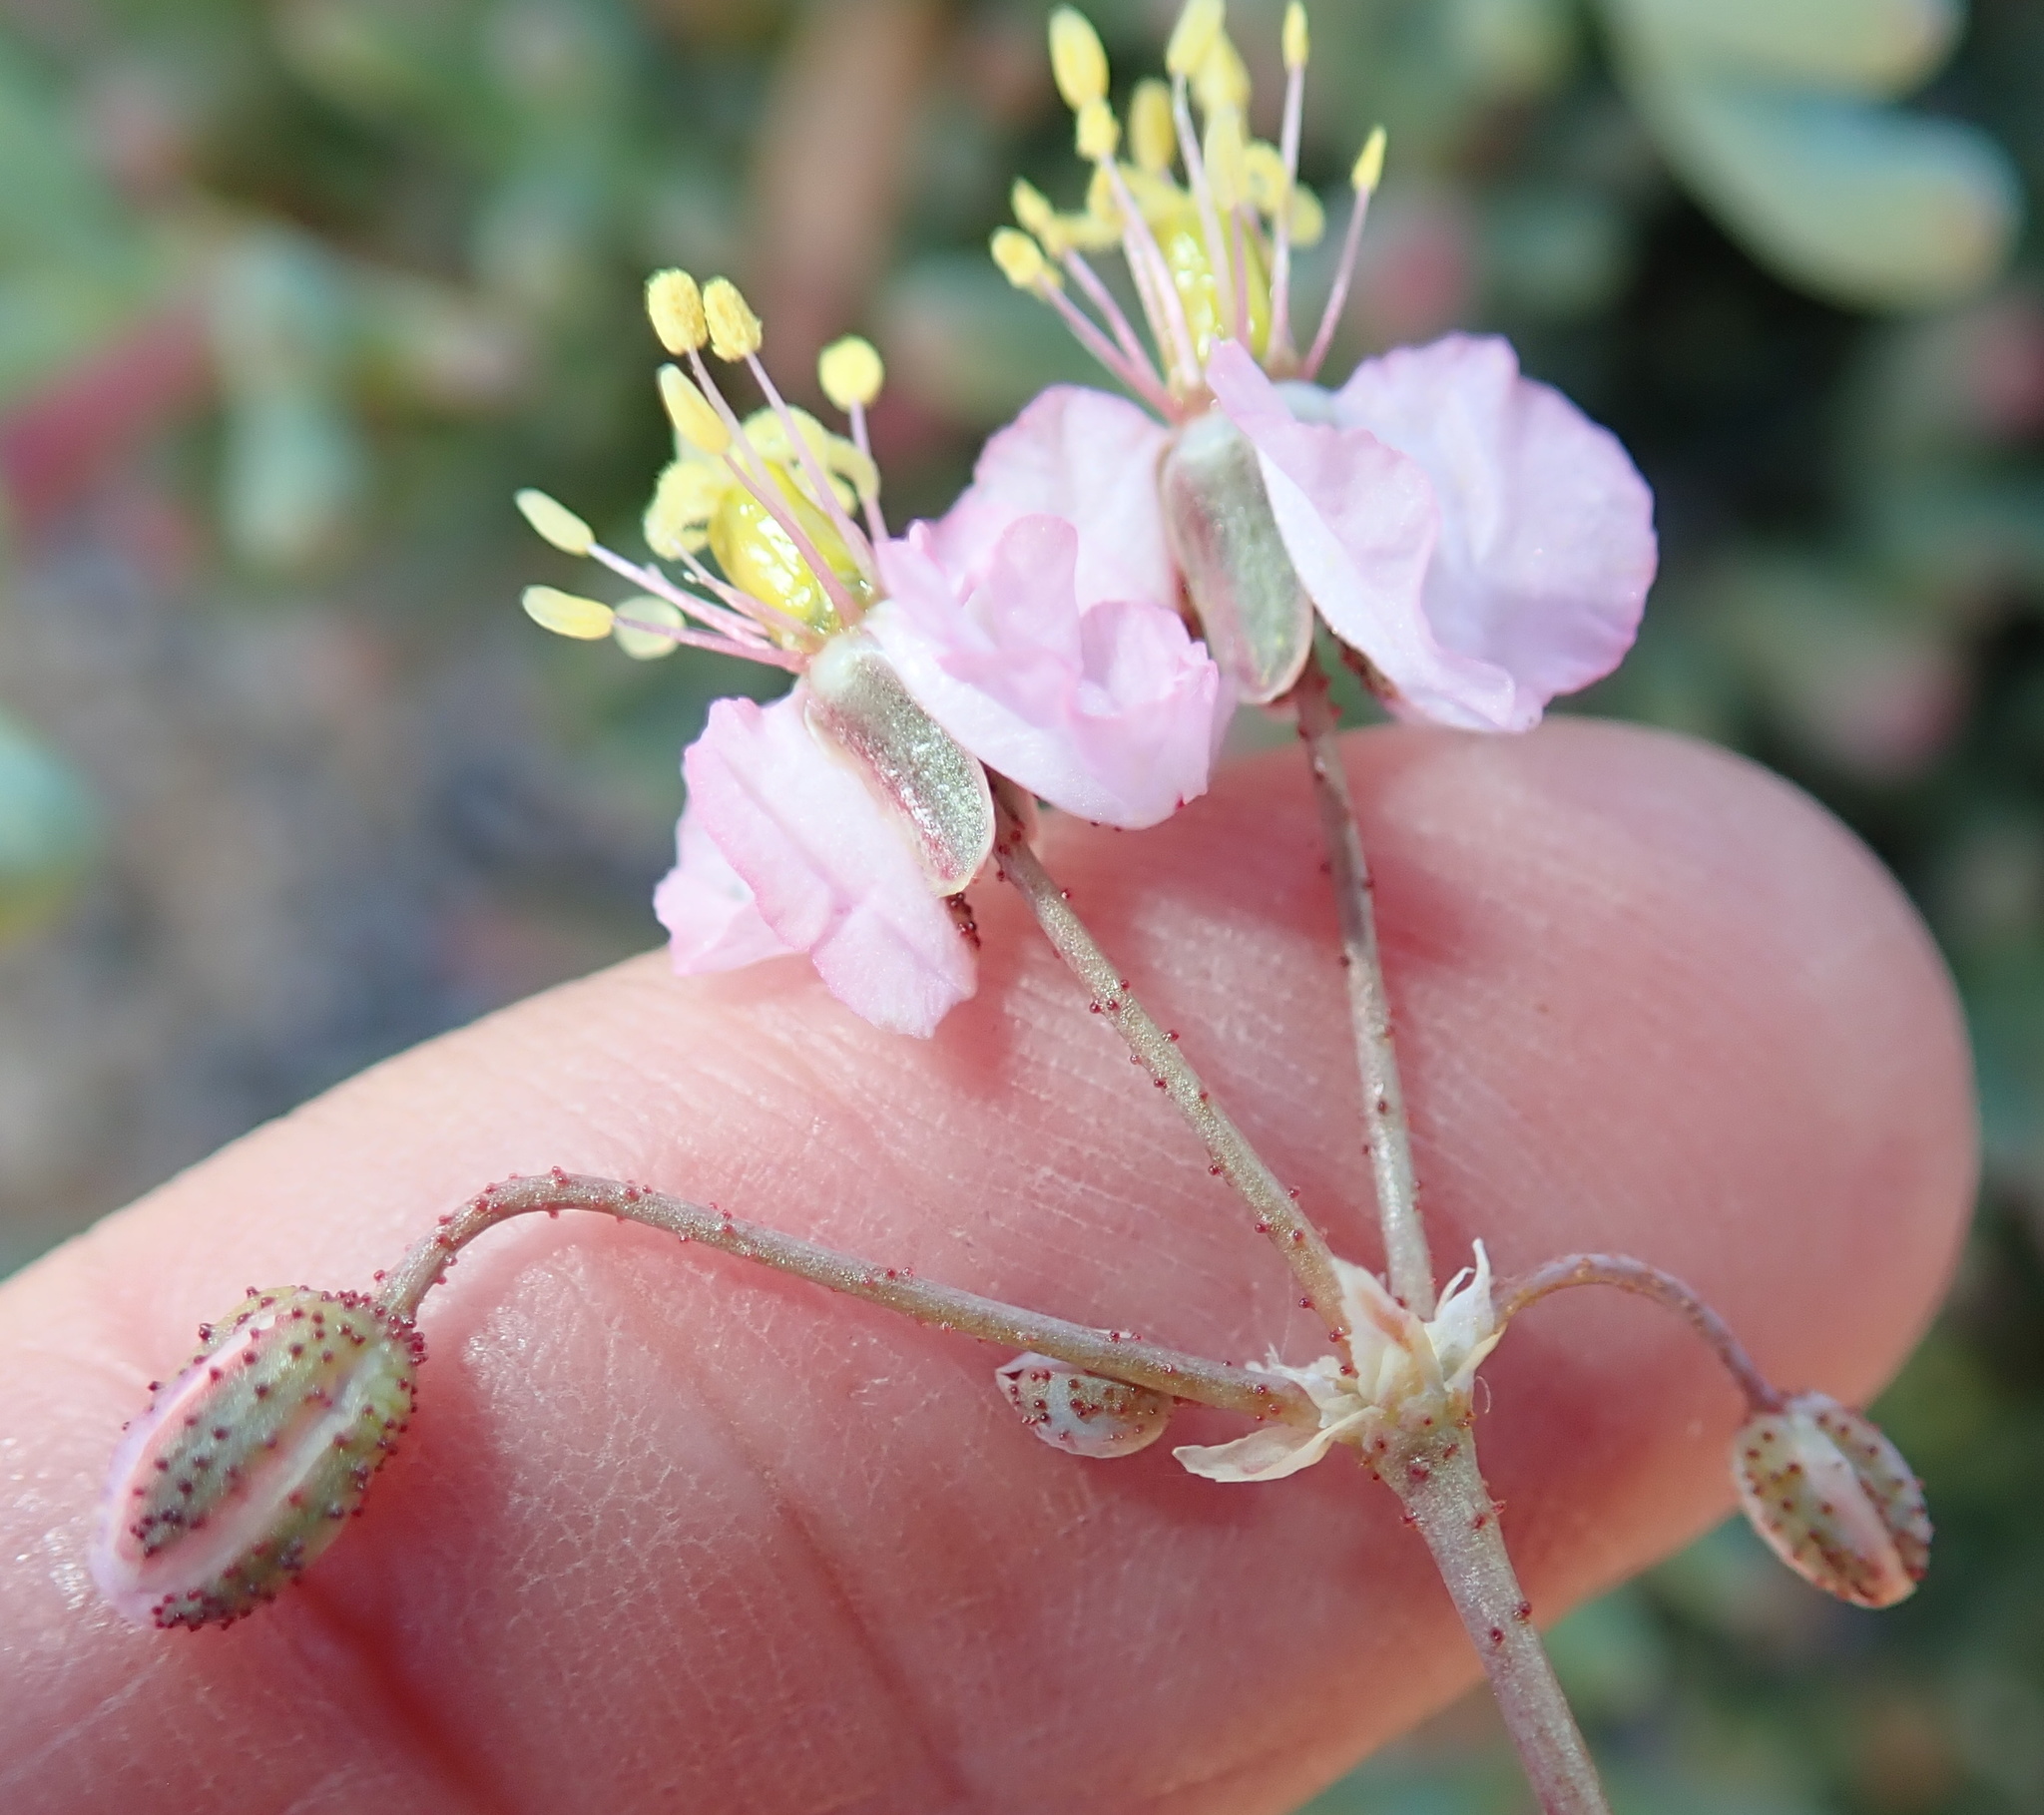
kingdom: Plantae
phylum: Tracheophyta
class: Magnoliopsida
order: Caryophyllales
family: Kewaceae
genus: Kewa
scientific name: Kewa salsoloides
